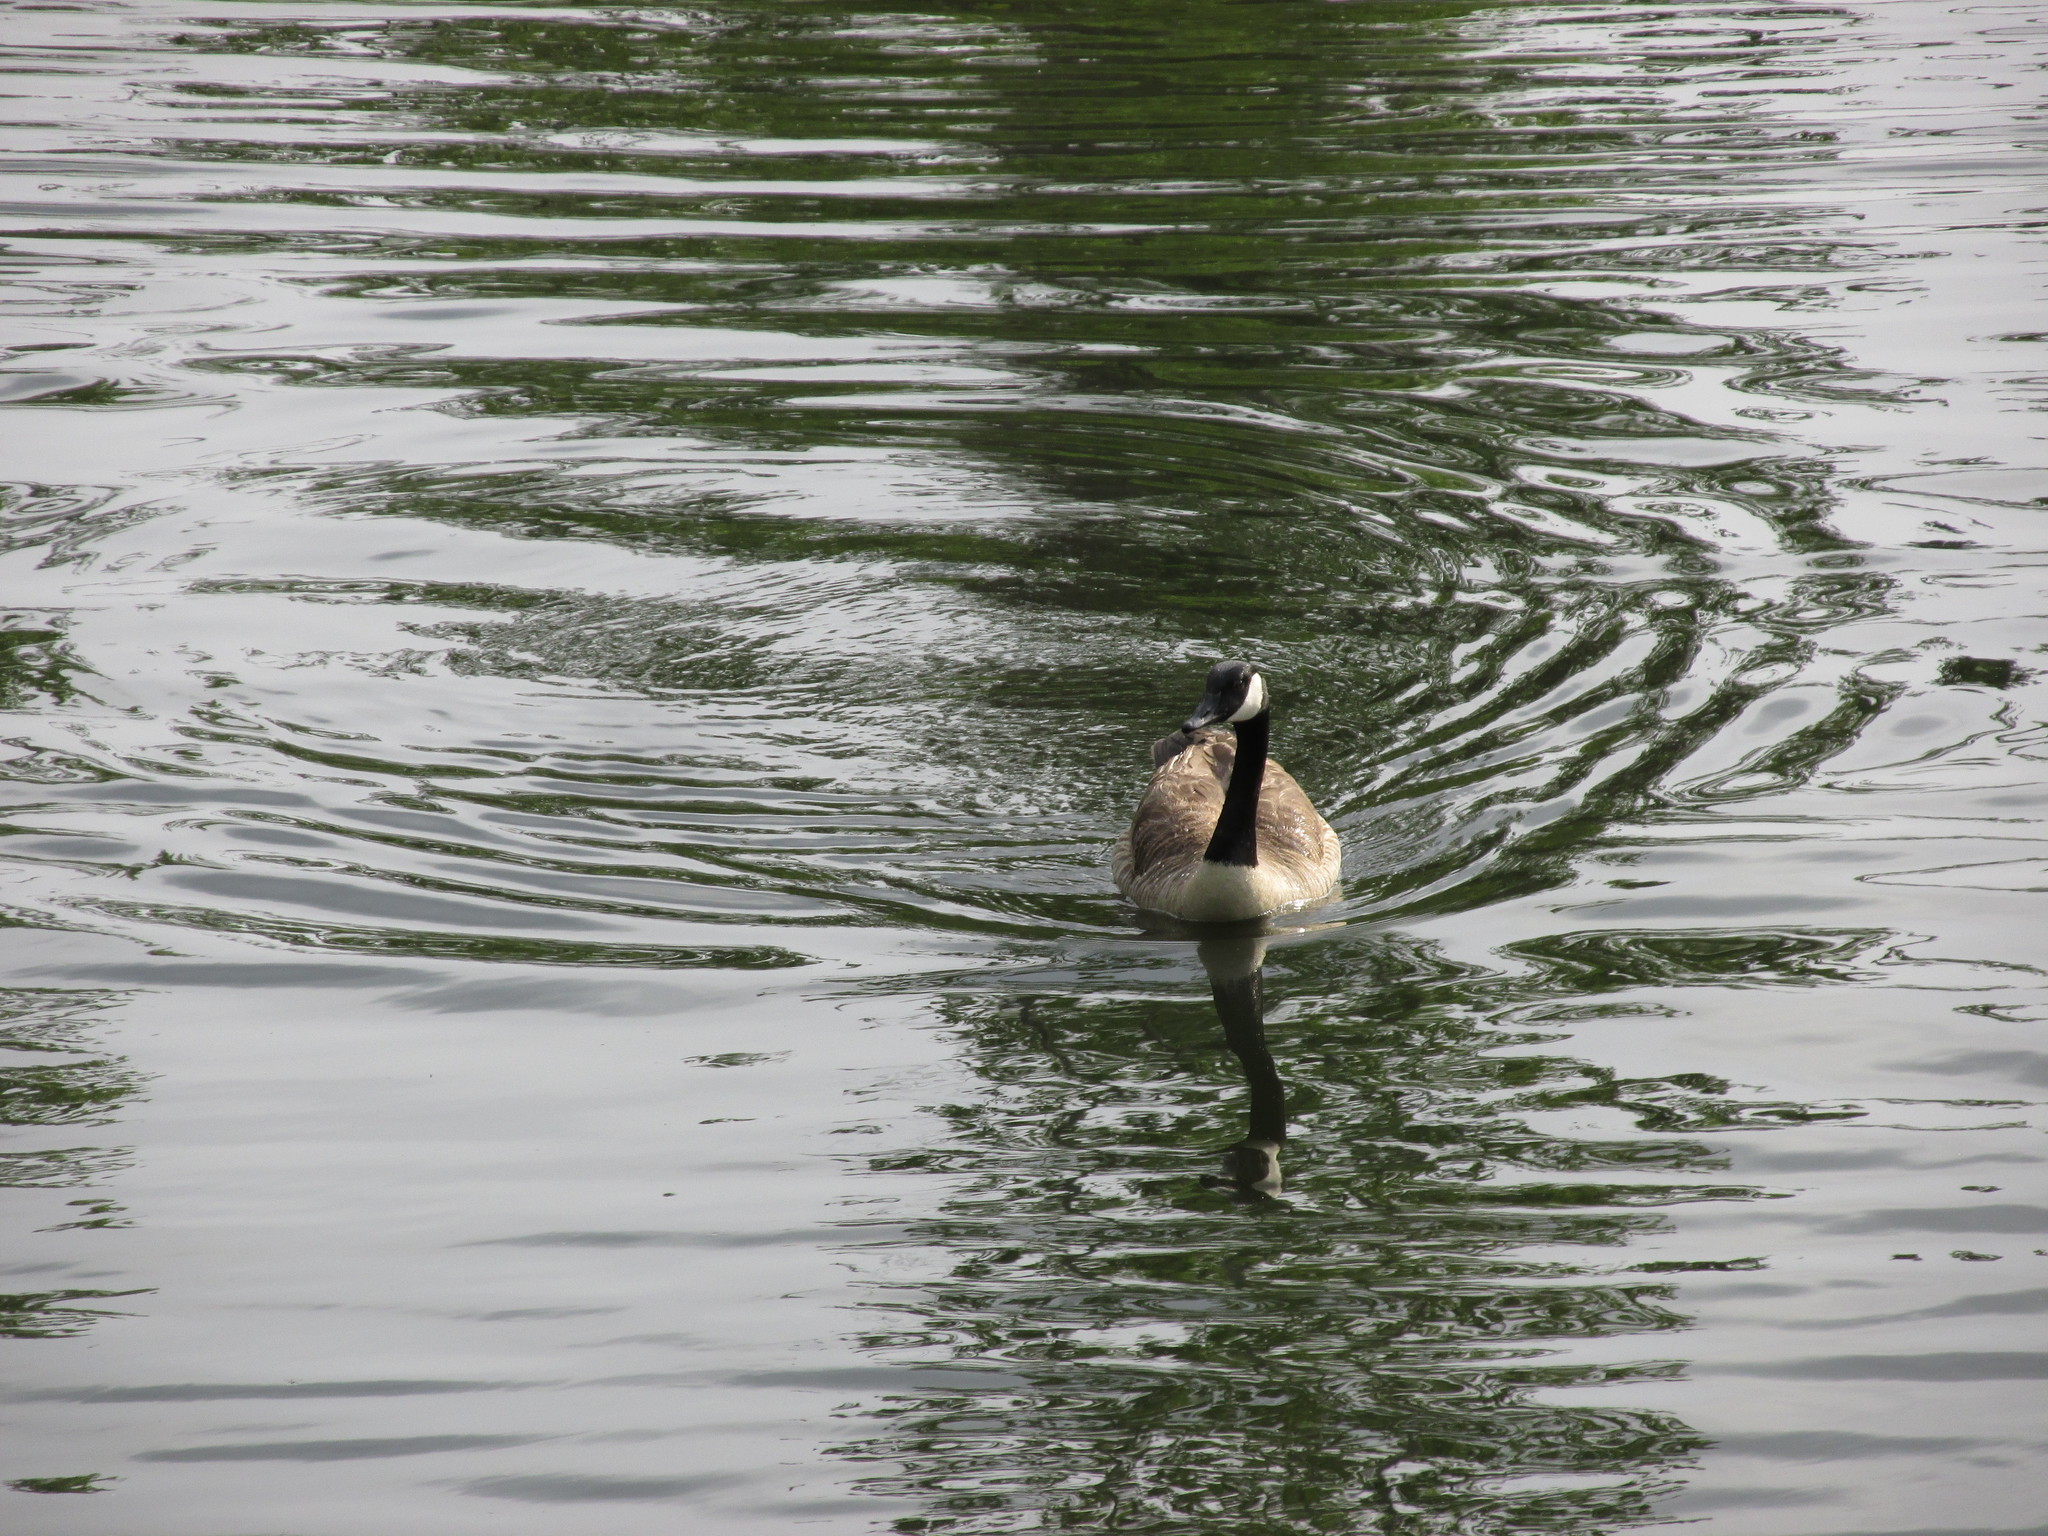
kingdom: Animalia
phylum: Chordata
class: Aves
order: Anseriformes
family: Anatidae
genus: Branta
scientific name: Branta canadensis
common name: Canada goose
